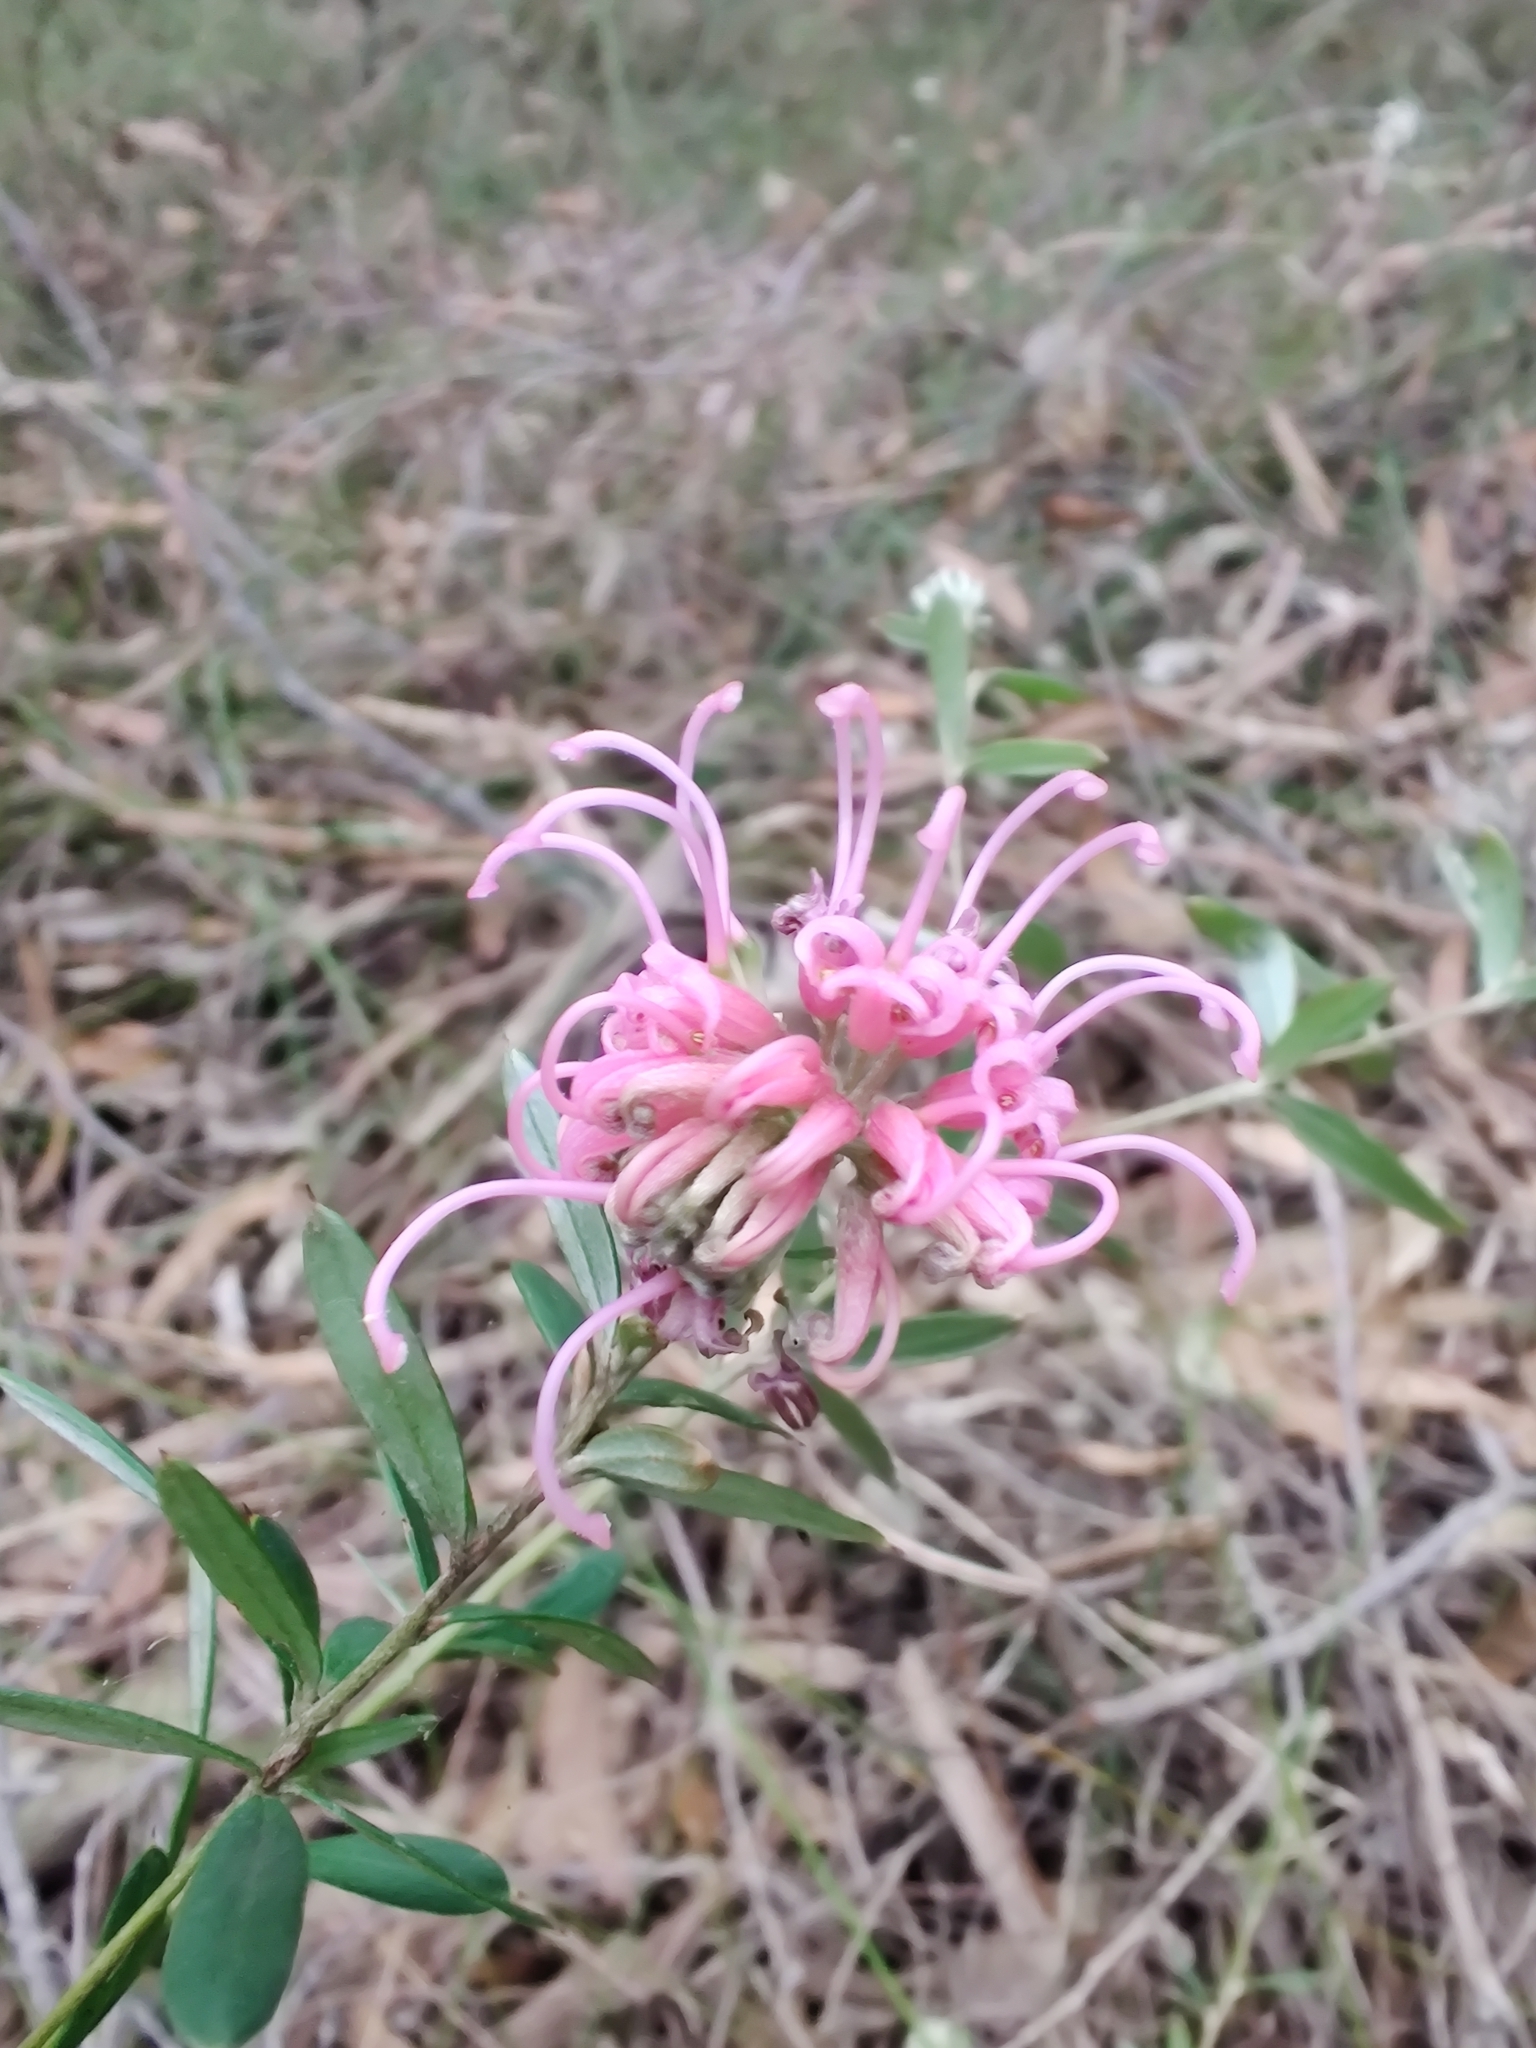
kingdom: Plantae
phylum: Tracheophyta
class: Magnoliopsida
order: Proteales
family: Proteaceae
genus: Grevillea
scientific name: Grevillea sericea
